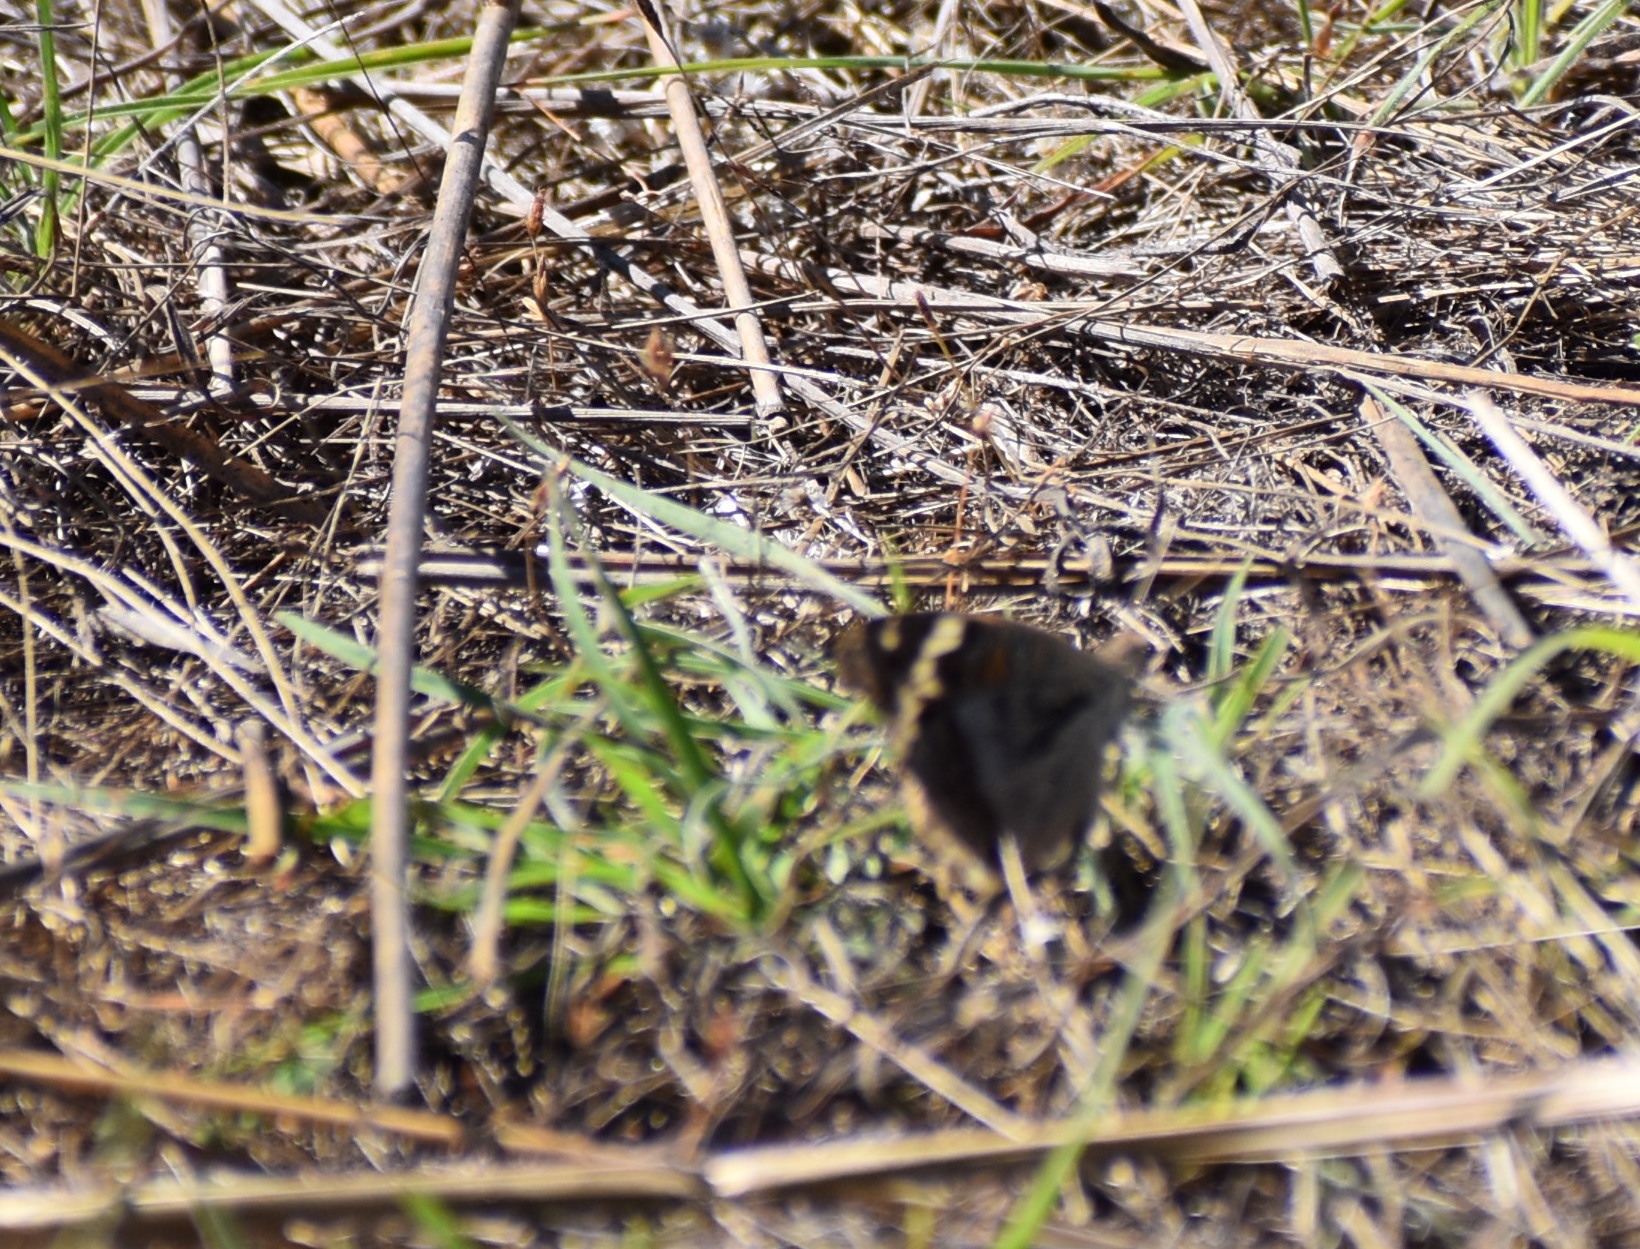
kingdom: Animalia
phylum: Arthropoda
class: Insecta
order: Lepidoptera
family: Nymphalidae
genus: Junonia
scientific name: Junonia orithya
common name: Blue pansy
